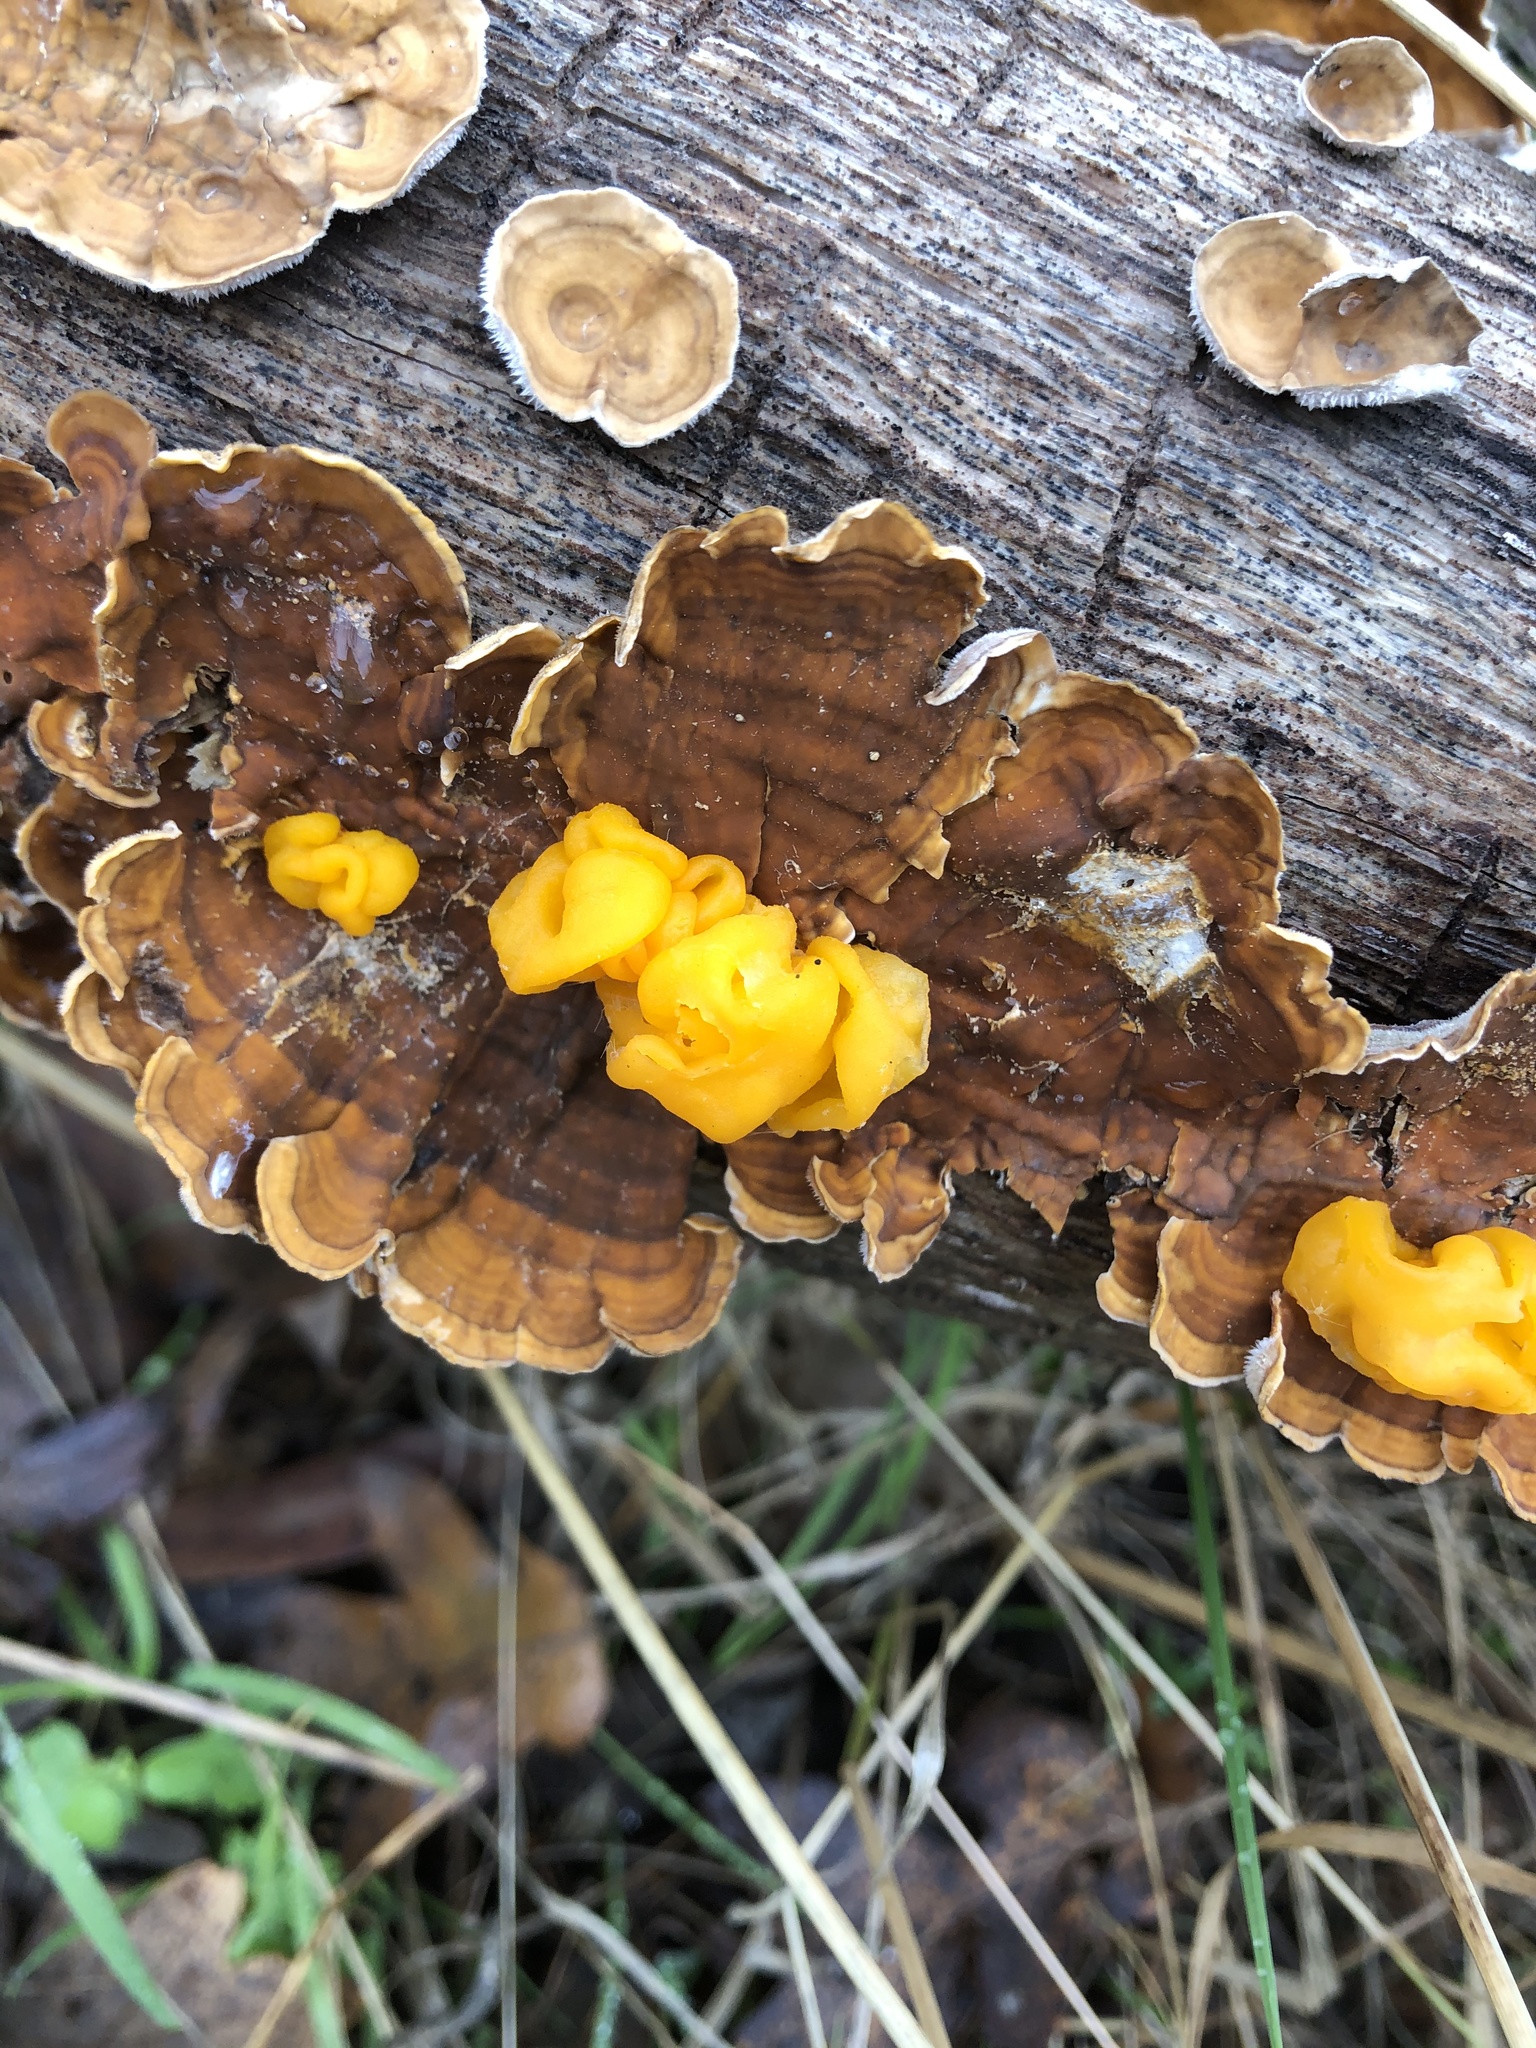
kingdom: Fungi
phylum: Basidiomycota
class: Tremellomycetes
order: Tremellales
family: Naemateliaceae
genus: Naematelia
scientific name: Naematelia aurantia
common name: Golden ear
